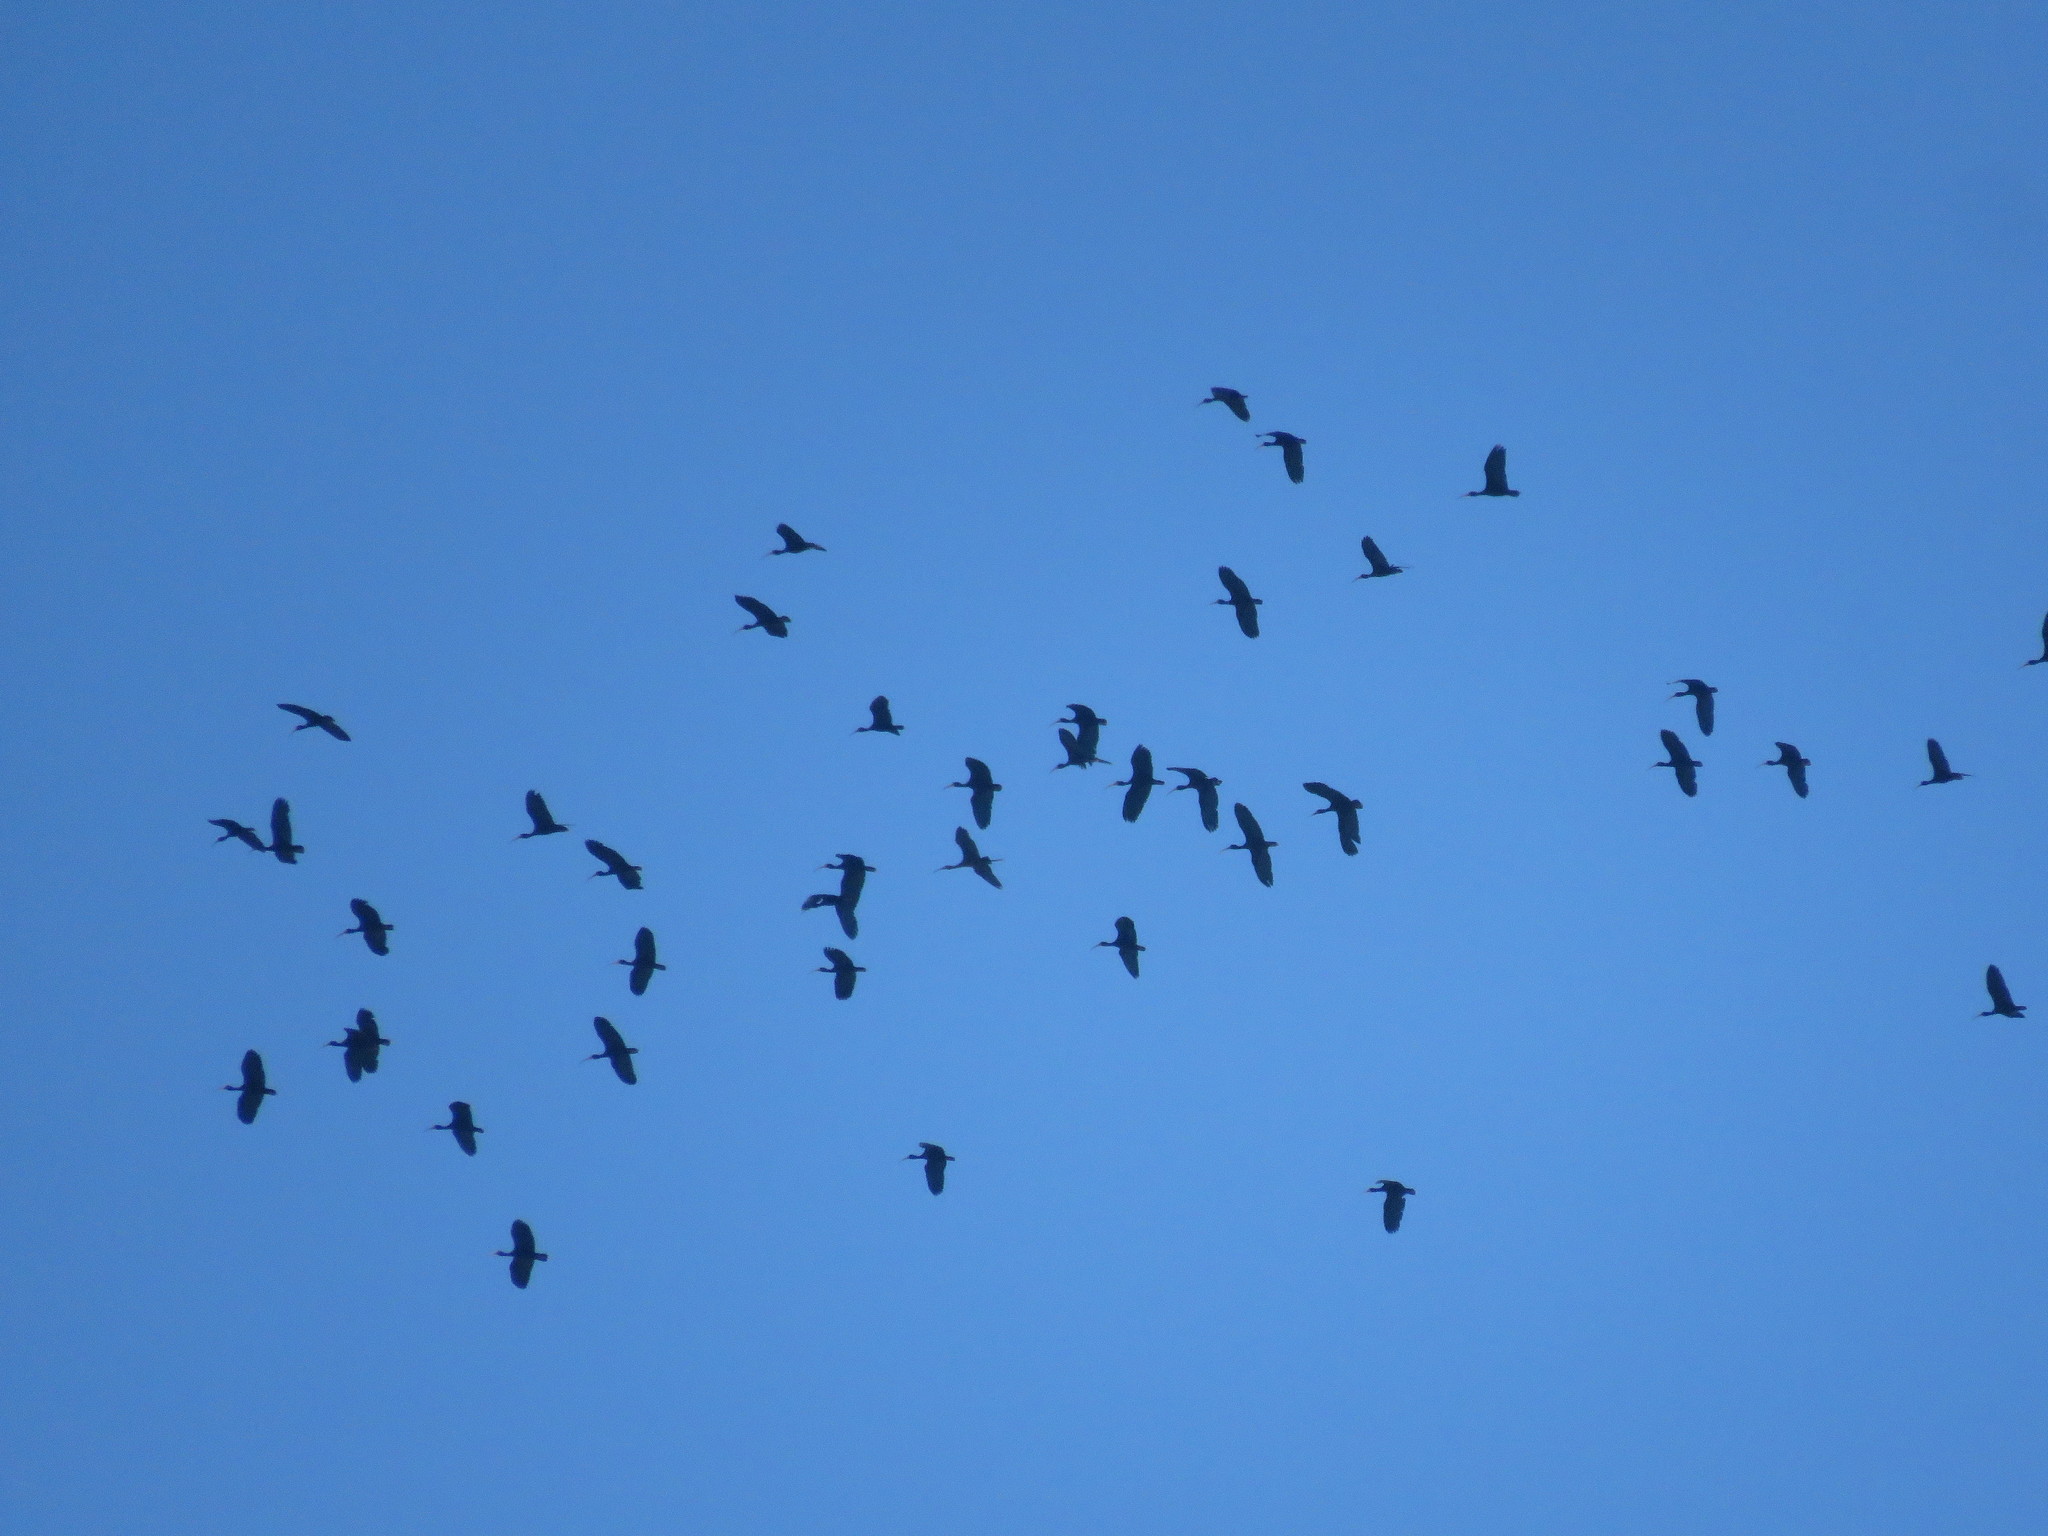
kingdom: Animalia
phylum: Chordata
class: Aves
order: Pelecaniformes
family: Threskiornithidae
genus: Phimosus
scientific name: Phimosus infuscatus
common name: Bare-faced ibis
